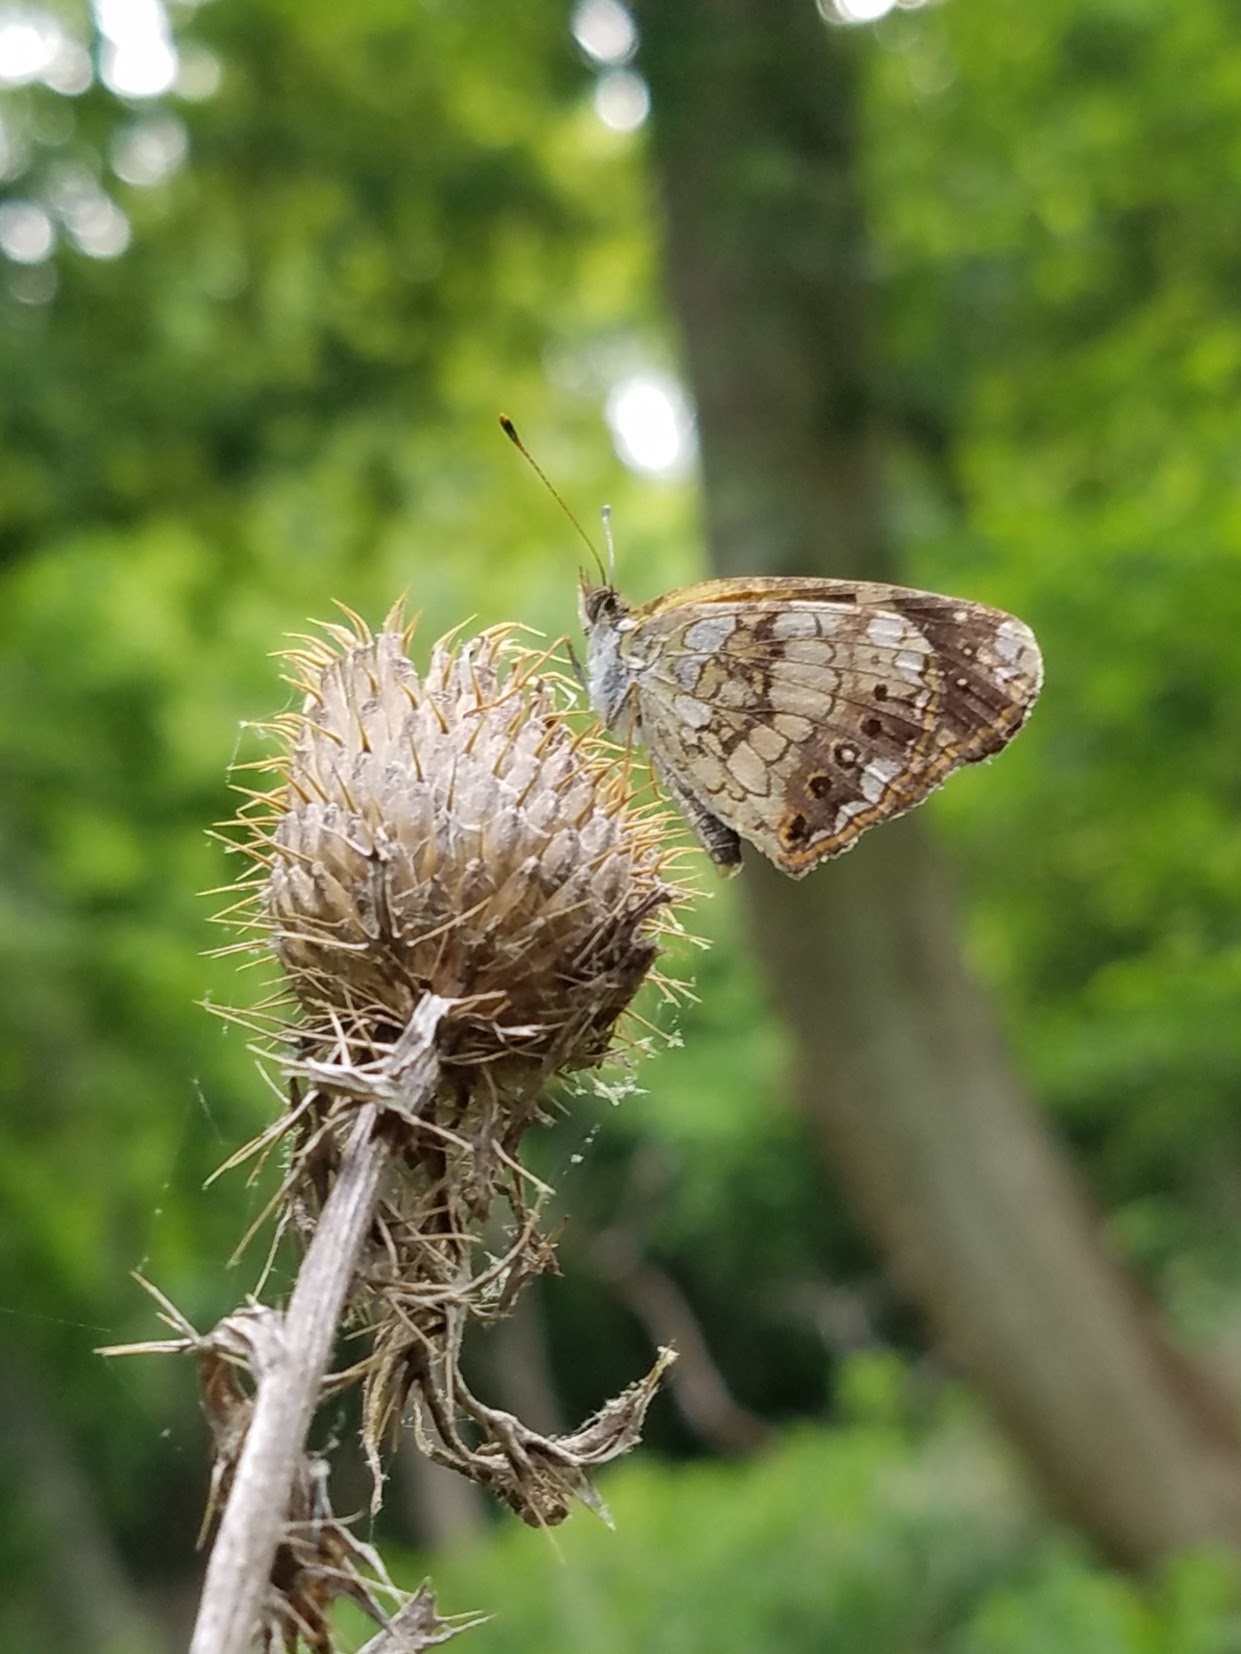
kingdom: Animalia
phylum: Arthropoda
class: Insecta
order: Lepidoptera
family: Nymphalidae
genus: Chlosyne
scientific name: Chlosyne nycteis
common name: Silvery checkerspot
